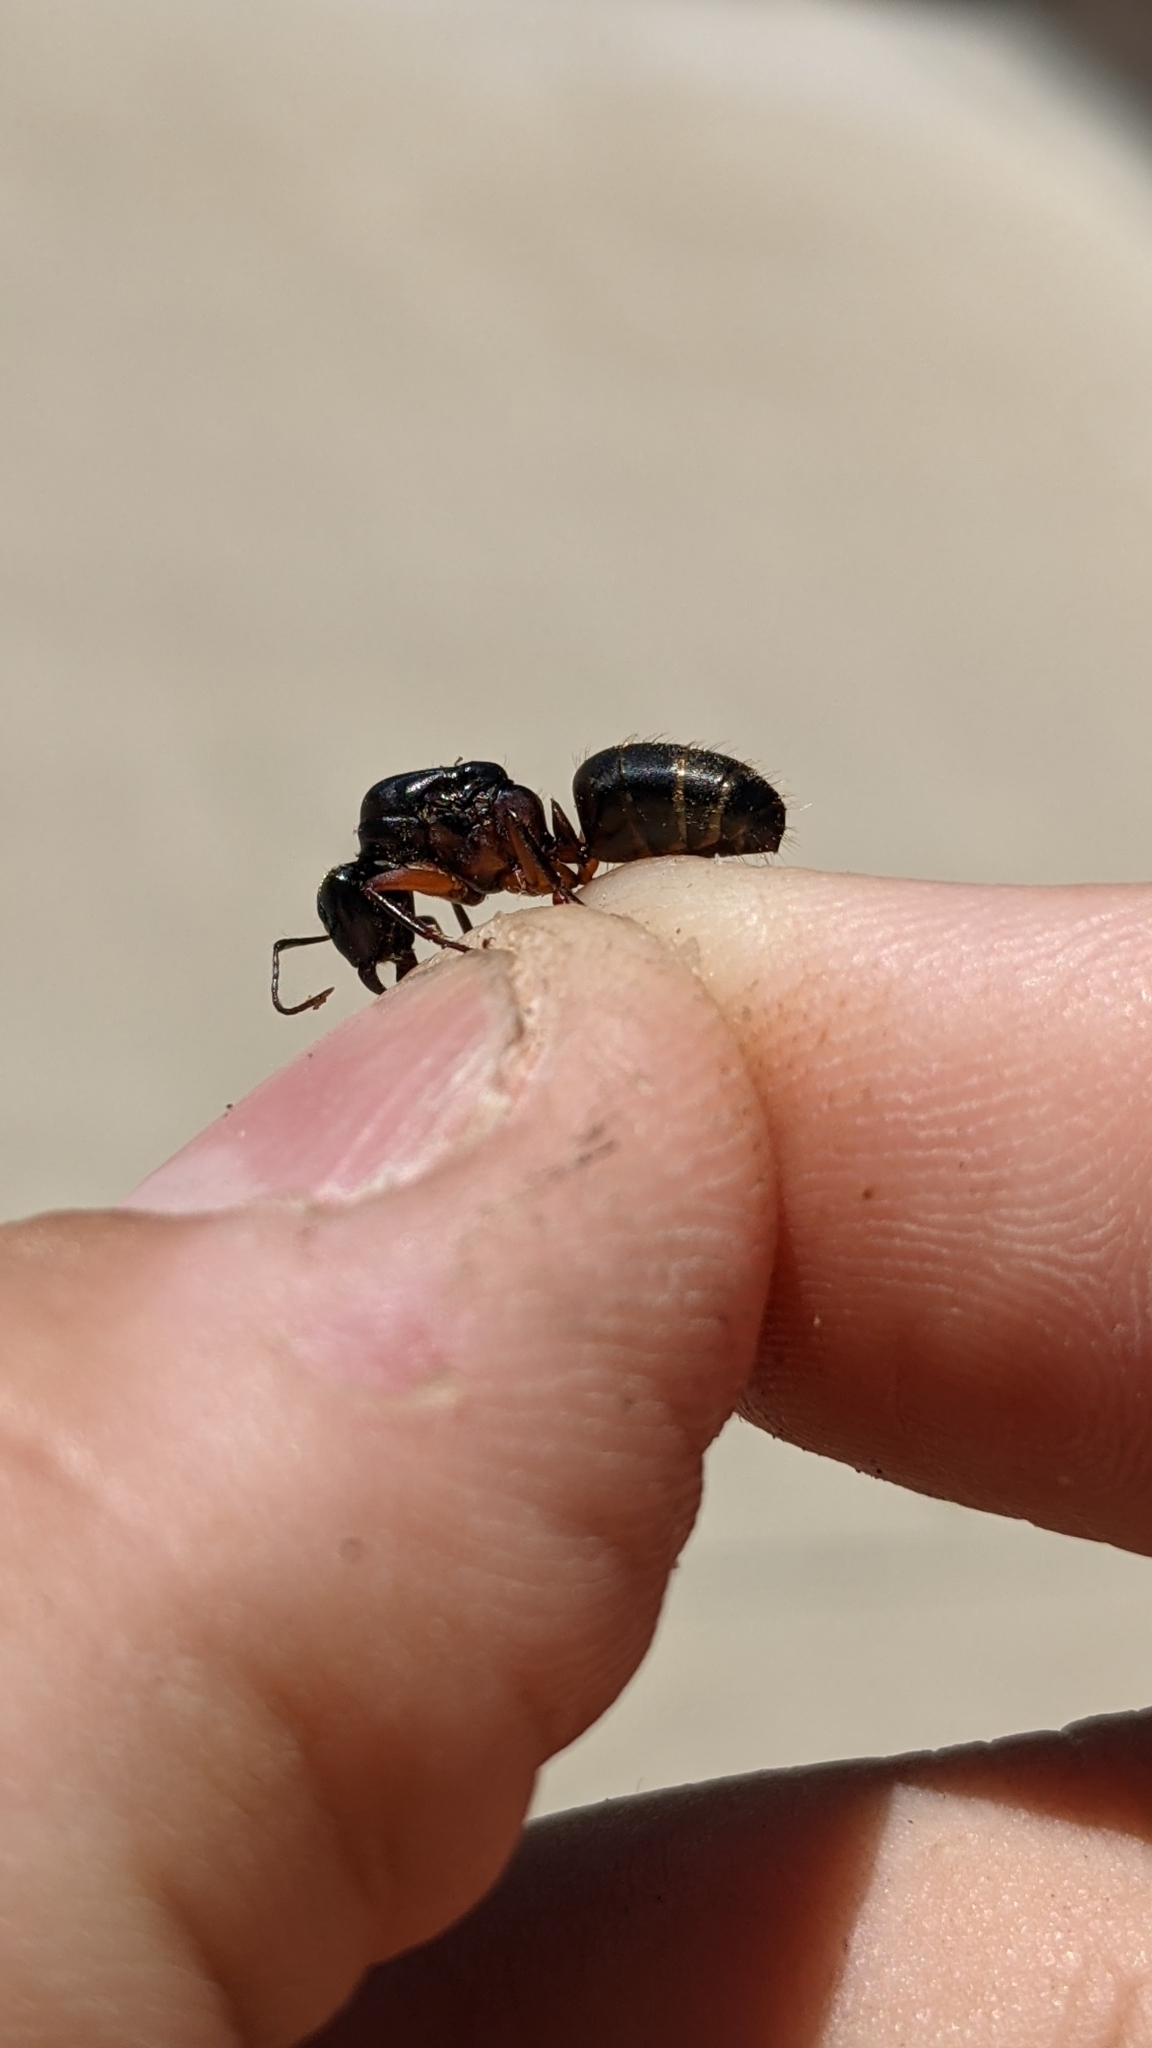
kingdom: Animalia
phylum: Arthropoda
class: Insecta
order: Hymenoptera
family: Formicidae
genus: Camponotus
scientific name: Camponotus chromaiodes
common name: Red carpenter ant
